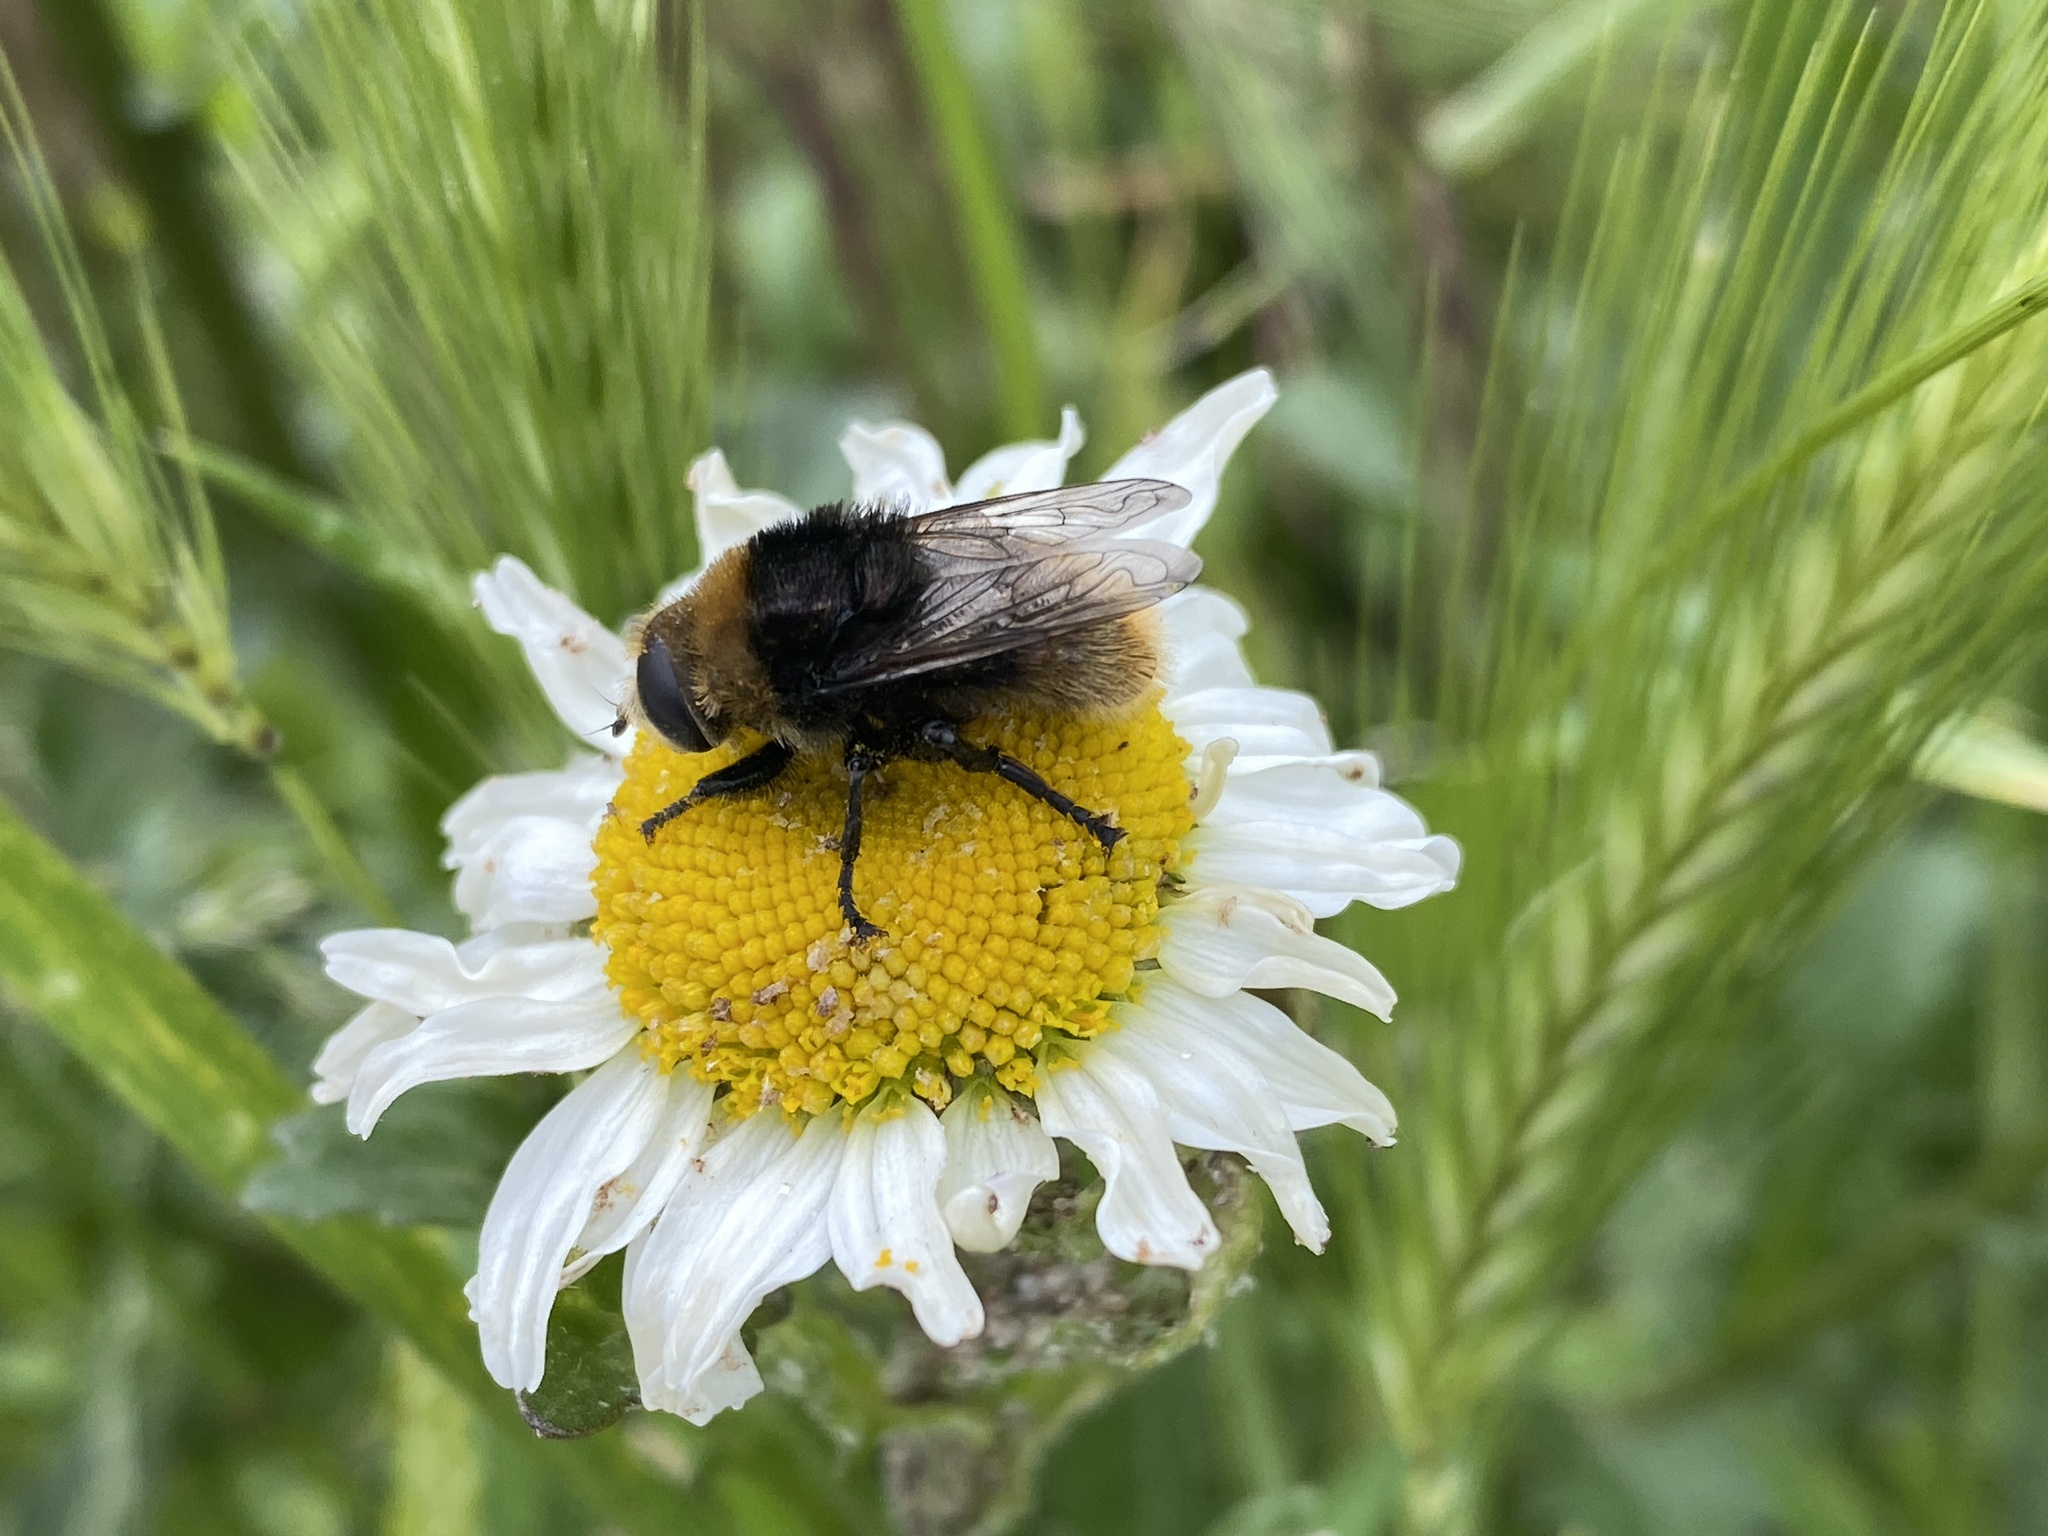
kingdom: Animalia
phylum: Arthropoda
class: Insecta
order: Diptera
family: Syrphidae
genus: Merodon
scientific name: Merodon equestris
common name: Greater bulb-fly
